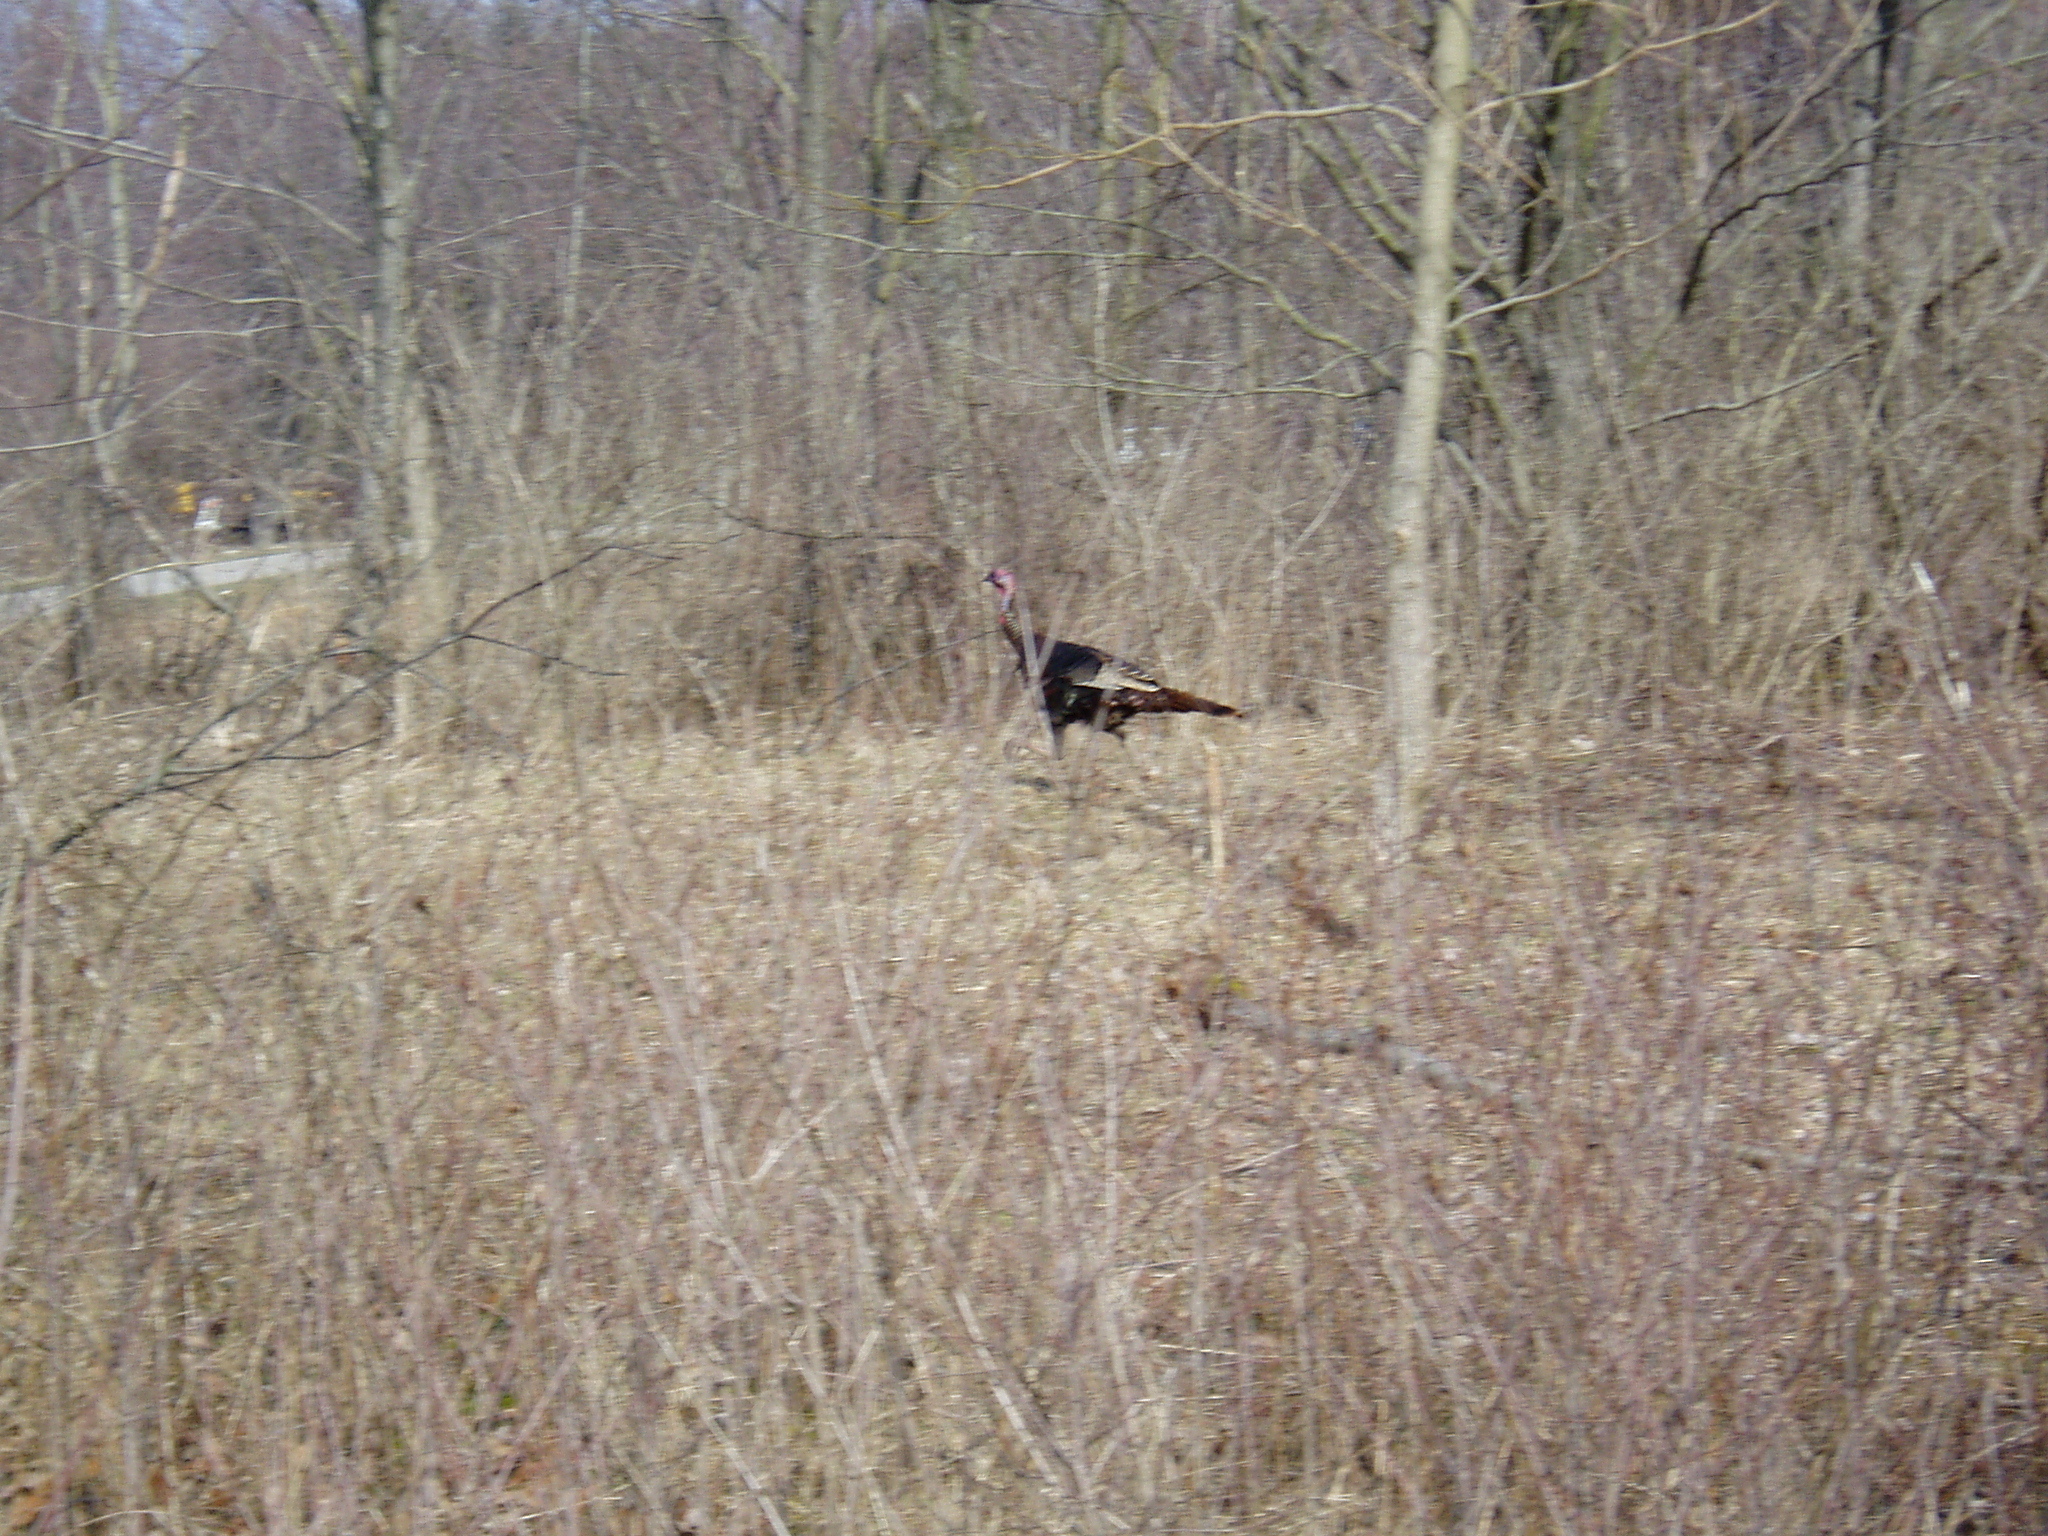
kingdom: Animalia
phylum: Chordata
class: Aves
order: Galliformes
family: Phasianidae
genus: Meleagris
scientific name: Meleagris gallopavo
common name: Wild turkey
